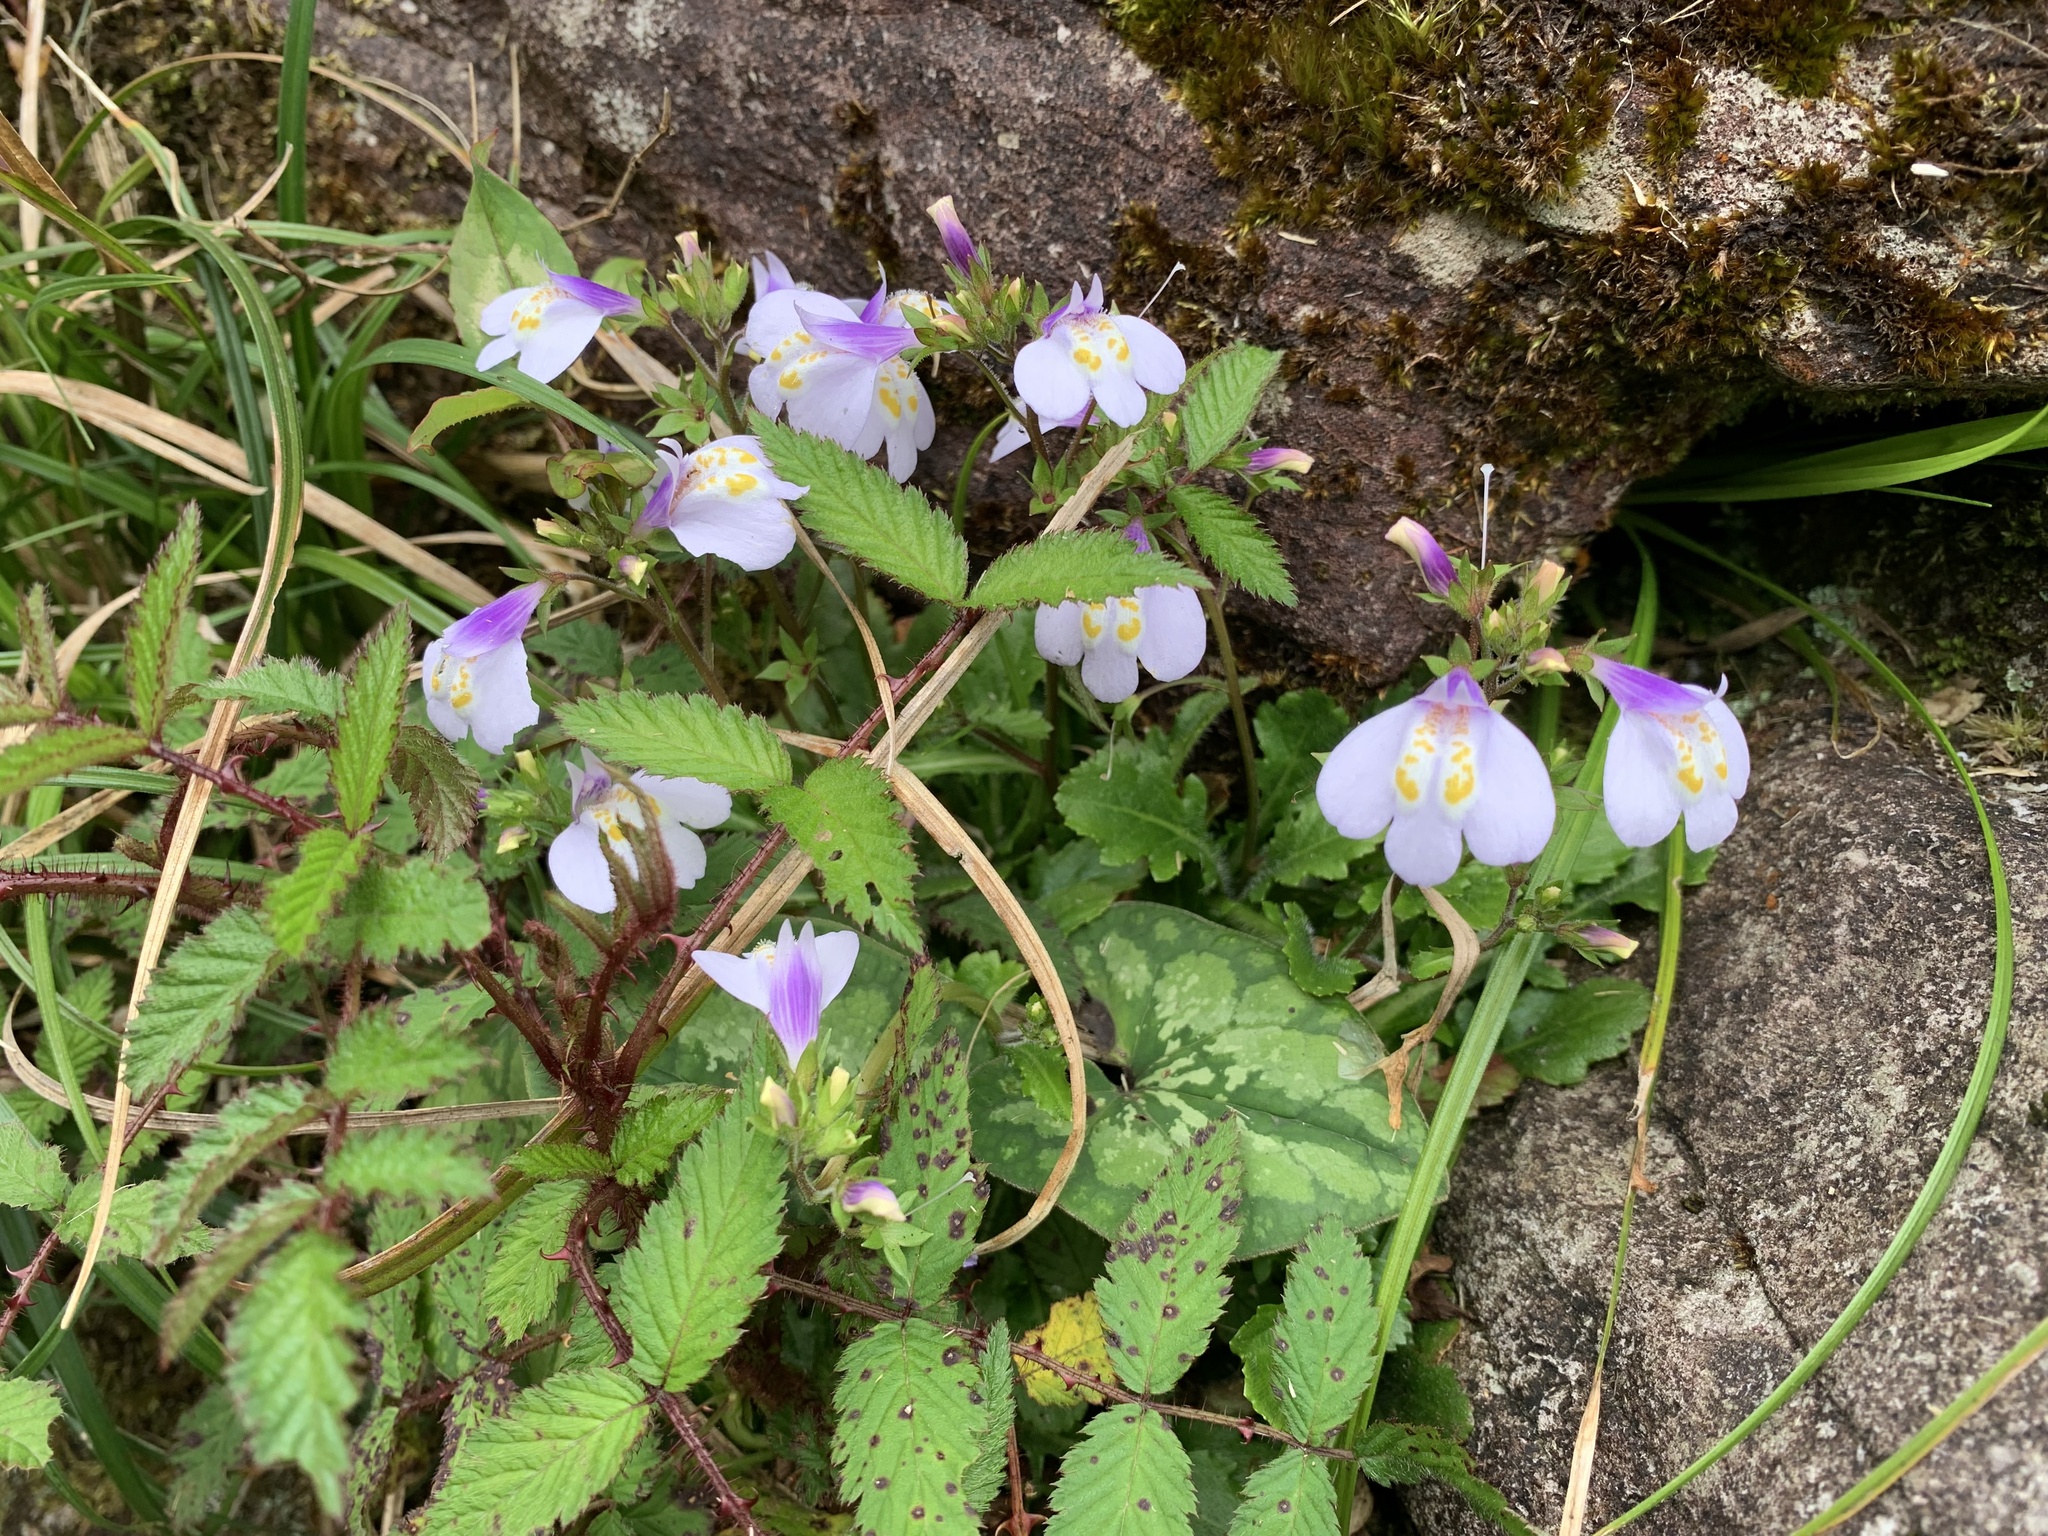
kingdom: Plantae
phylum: Tracheophyta
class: Magnoliopsida
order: Lamiales
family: Mazaceae
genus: Mazus
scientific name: Mazus fauriei
